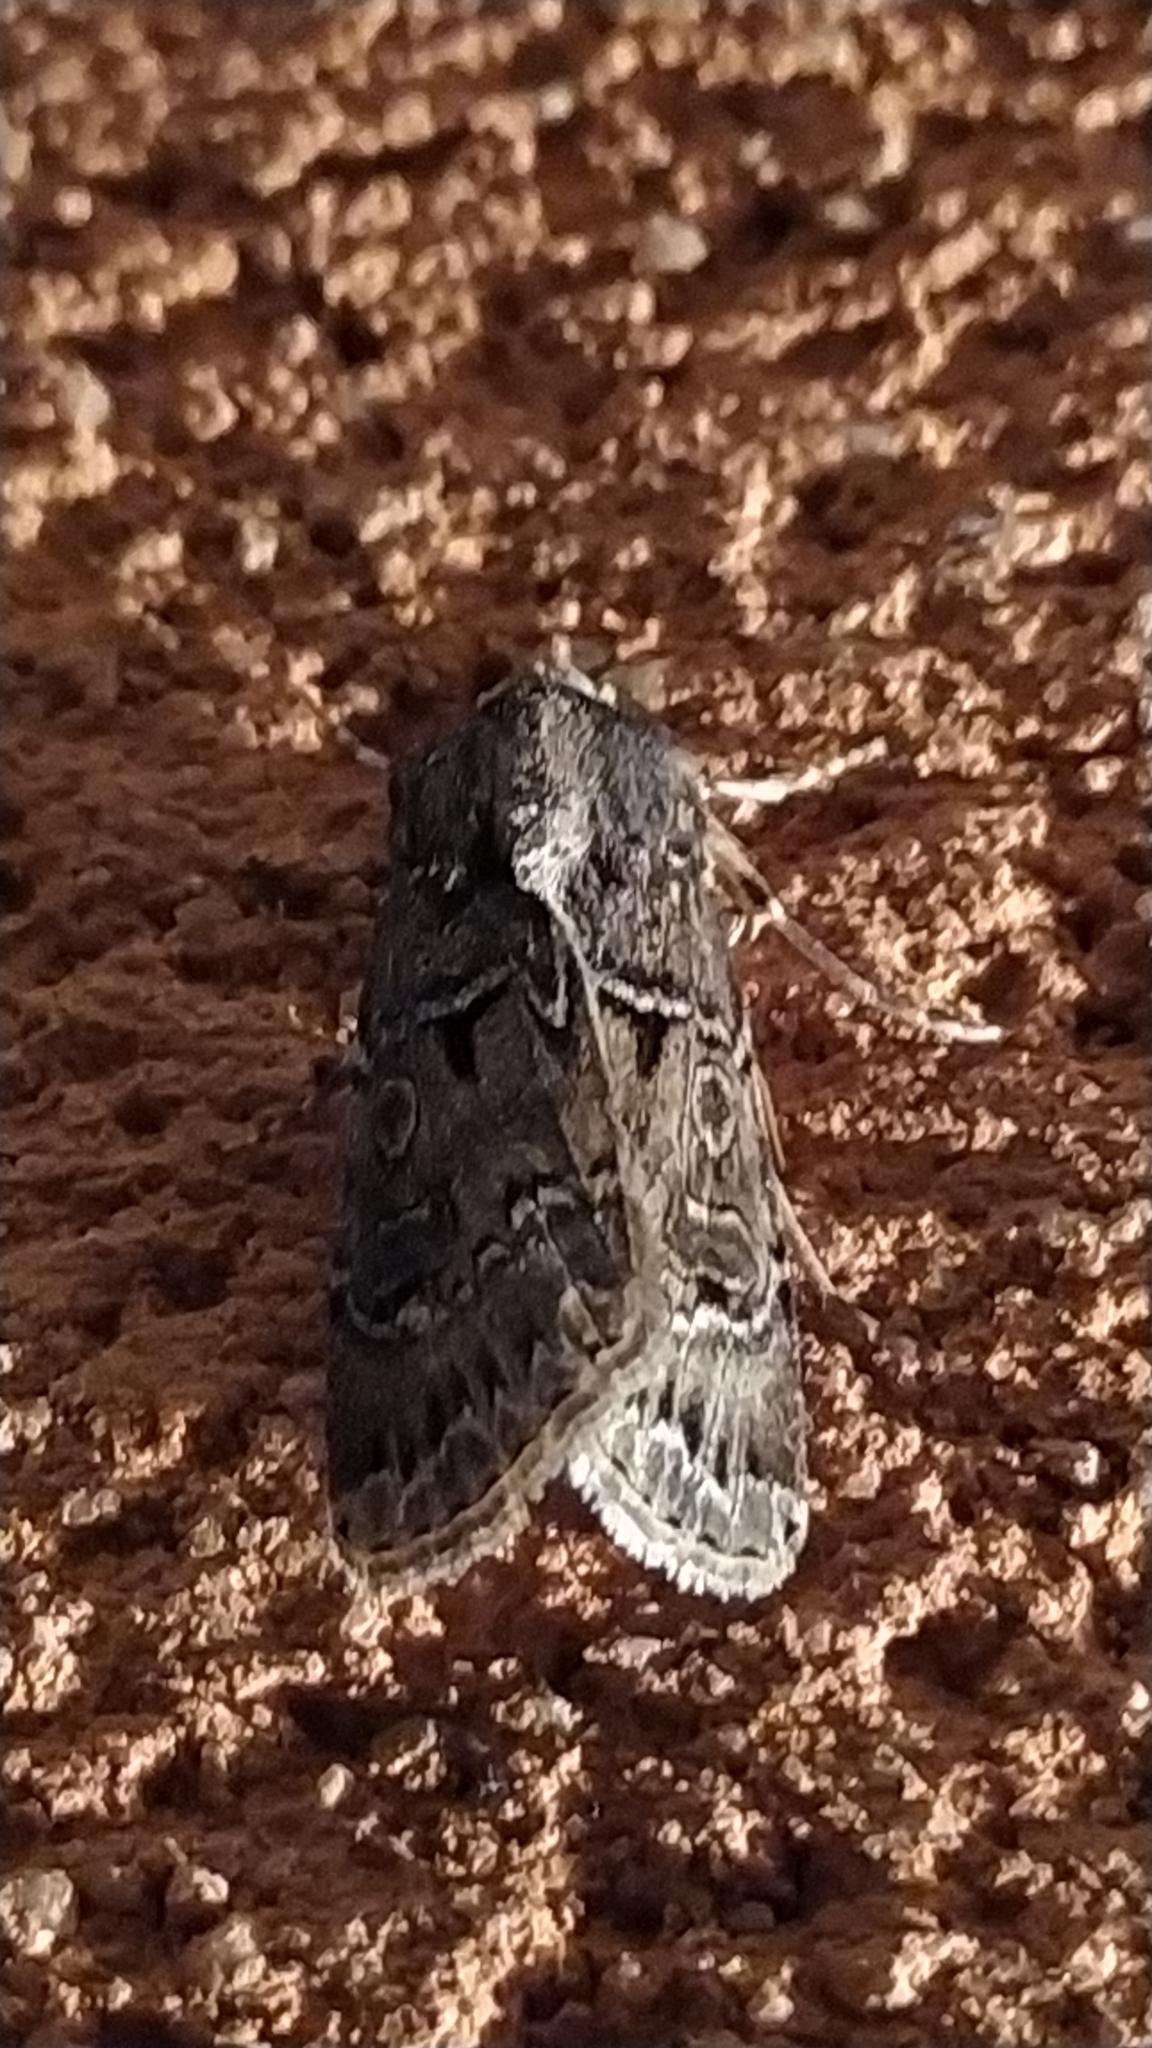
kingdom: Animalia
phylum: Arthropoda
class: Insecta
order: Lepidoptera
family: Noctuidae
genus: Agrotis
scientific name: Agrotis bigramma
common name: Great dart
